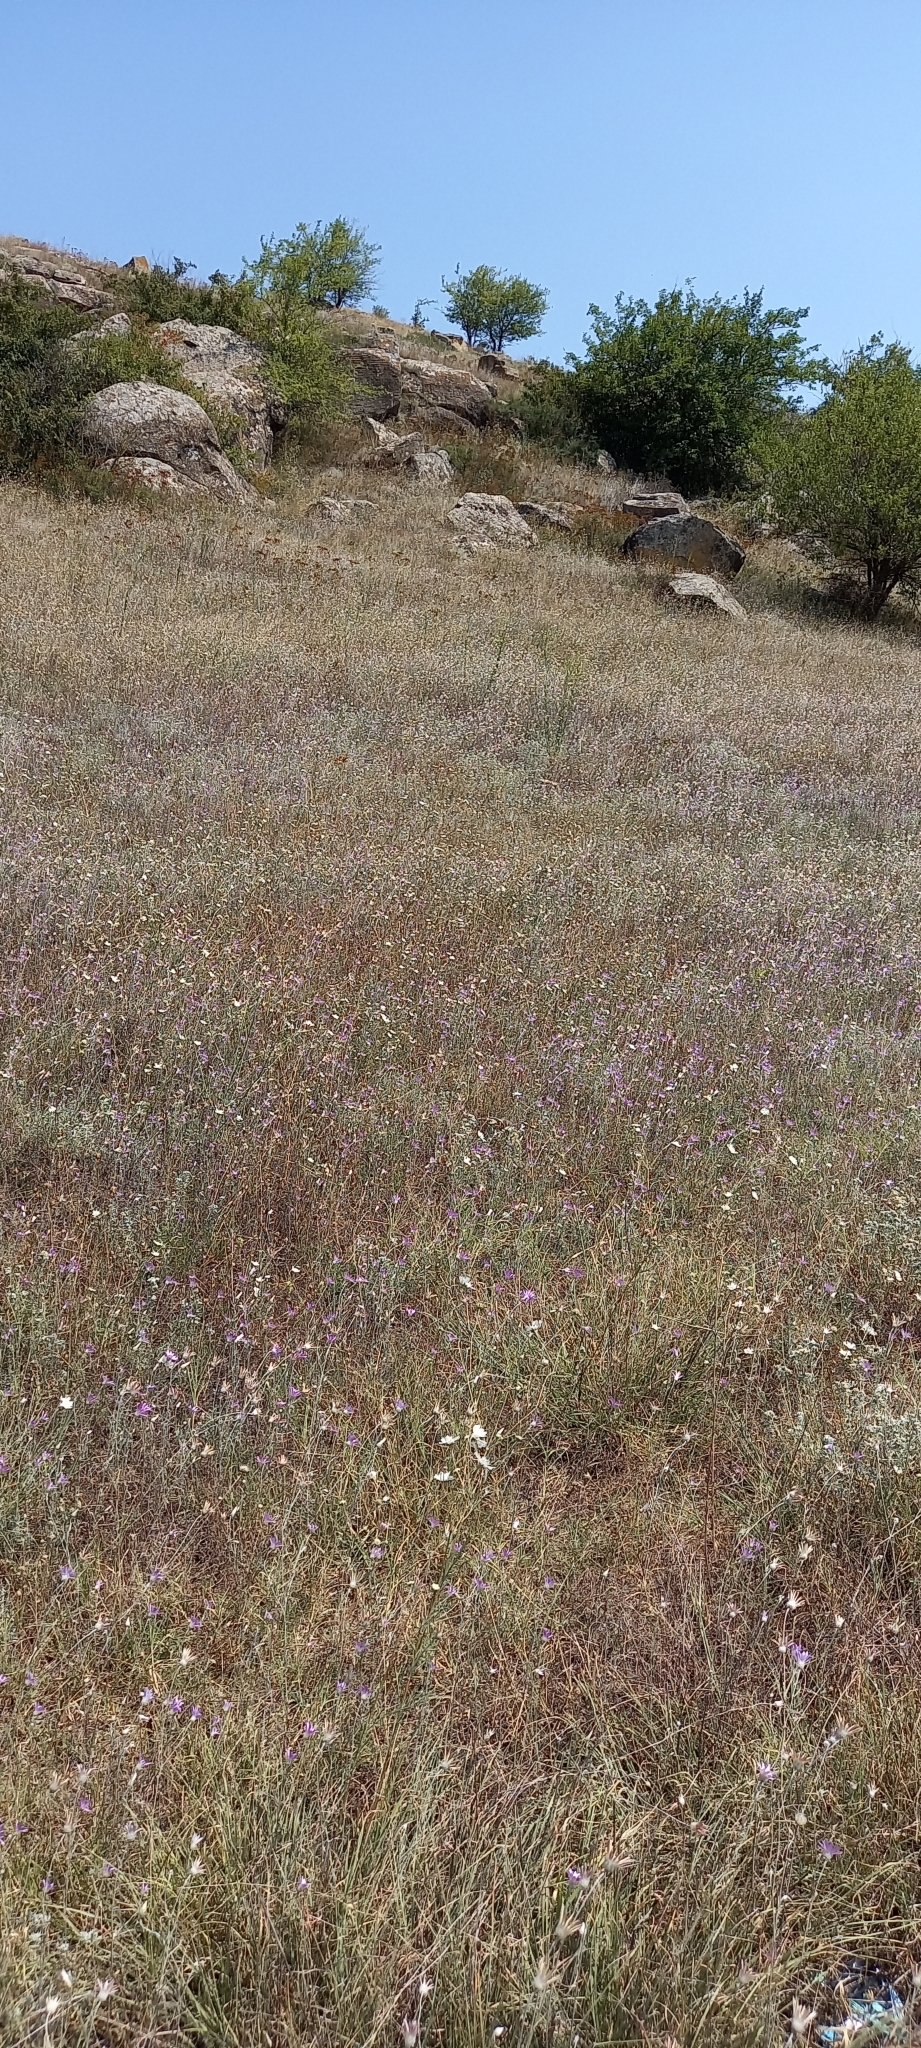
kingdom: Plantae
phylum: Tracheophyta
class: Magnoliopsida
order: Dipsacales
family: Caprifoliaceae
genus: Lomelosia
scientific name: Lomelosia argentea
